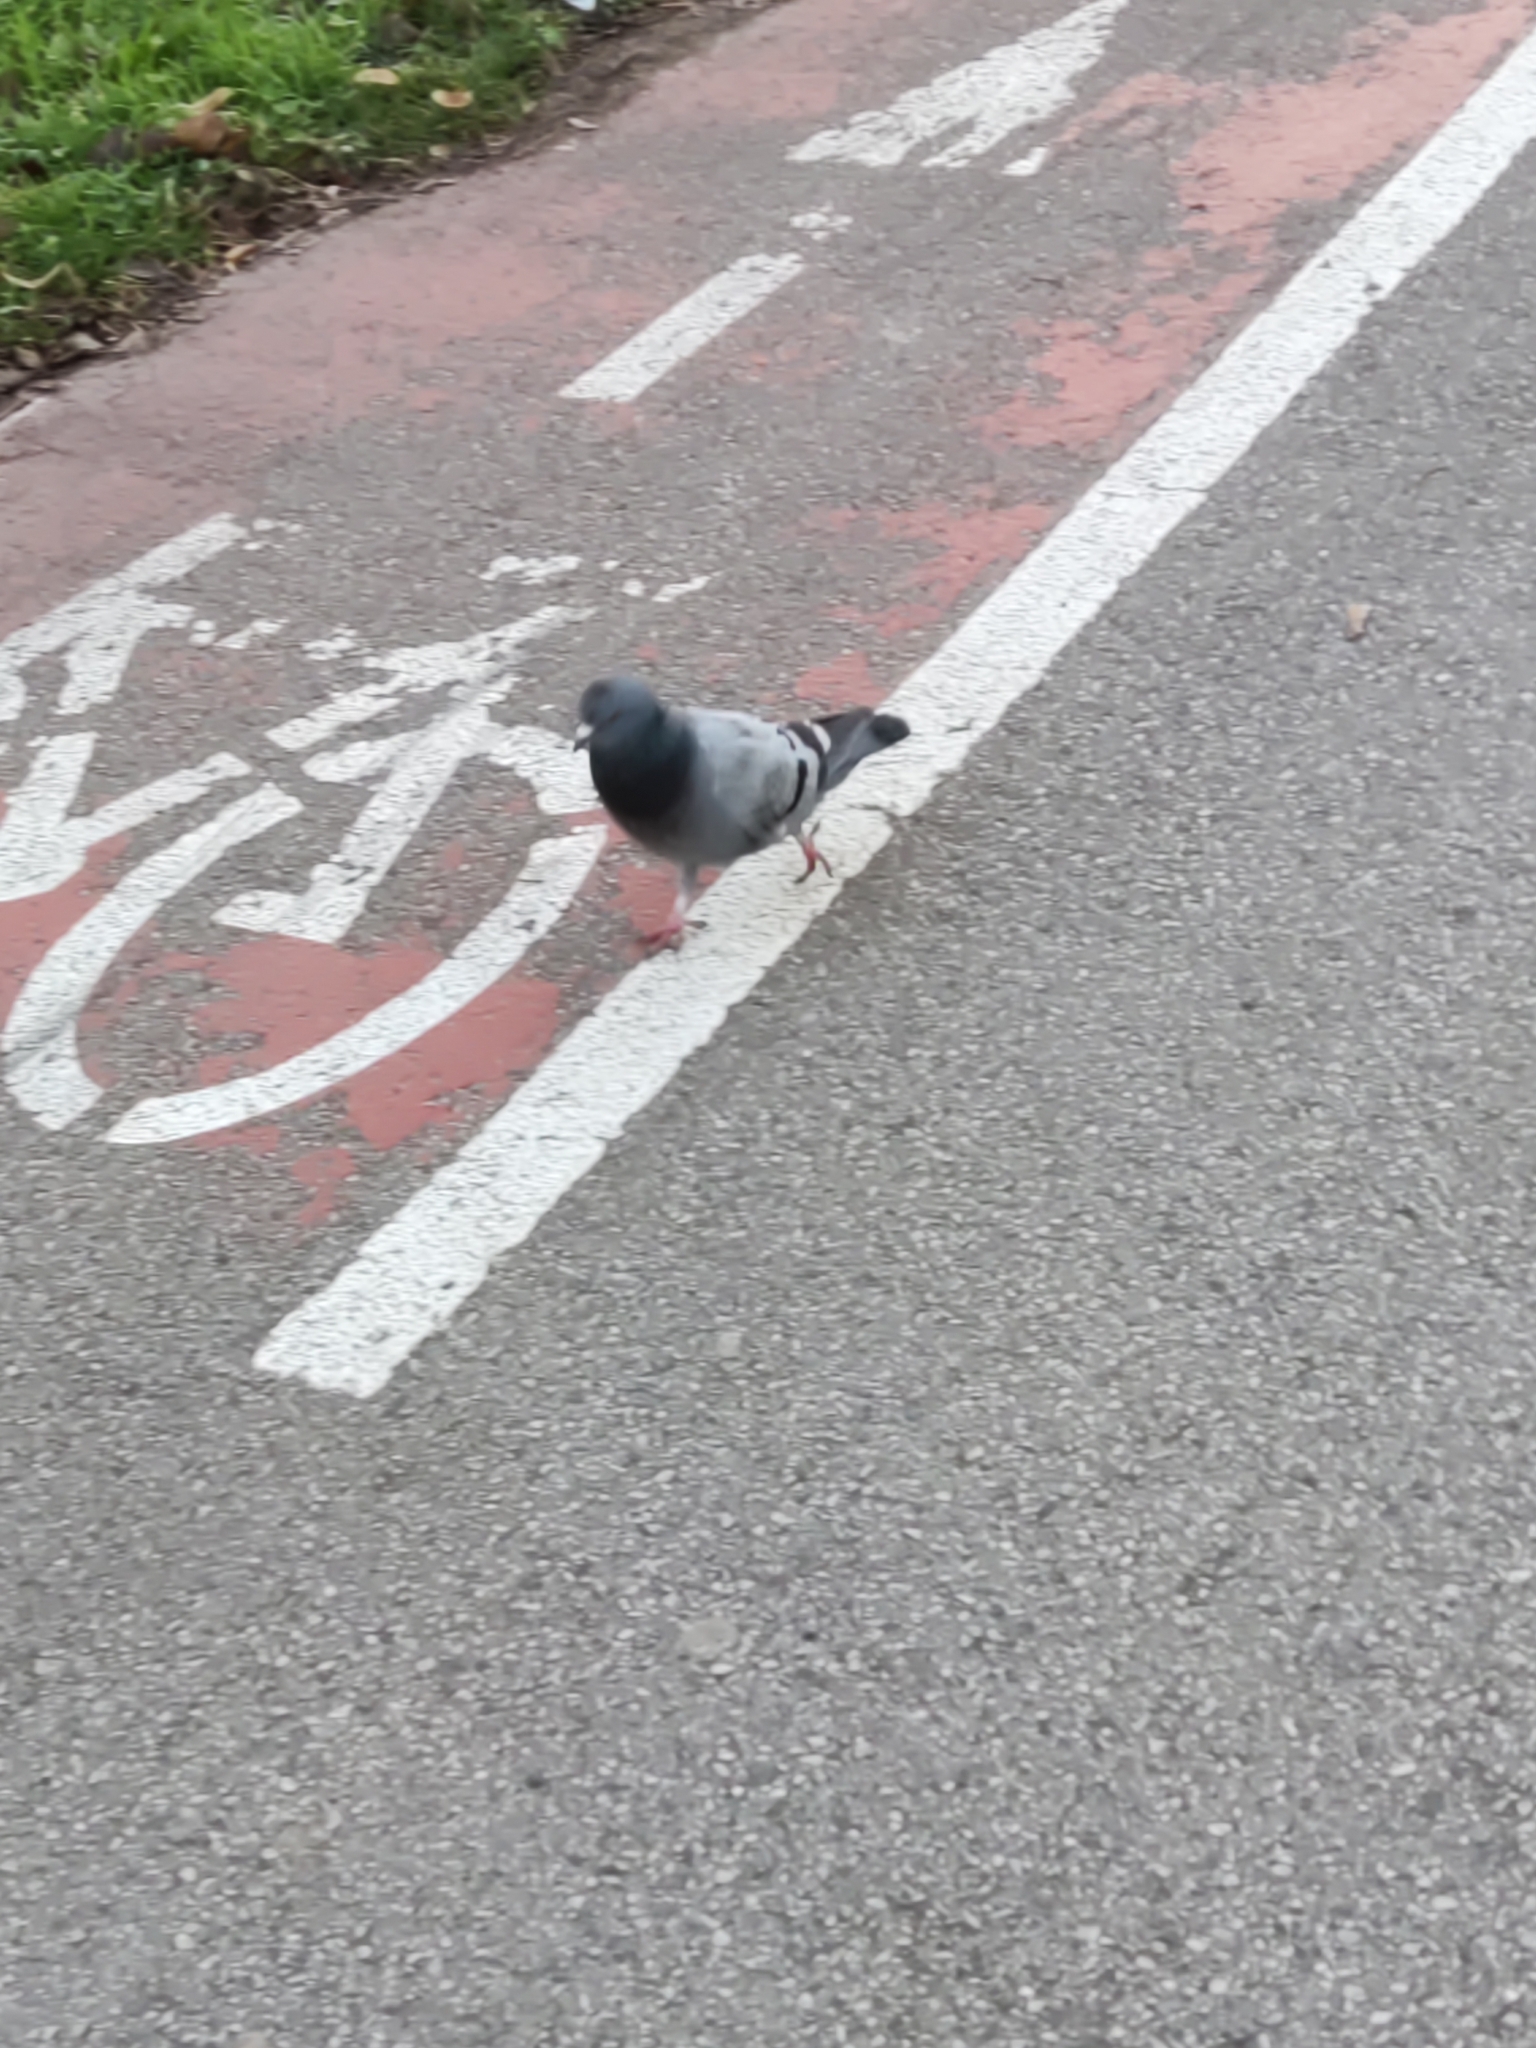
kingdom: Animalia
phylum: Chordata
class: Aves
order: Columbiformes
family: Columbidae
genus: Columba
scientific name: Columba livia
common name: Rock pigeon
